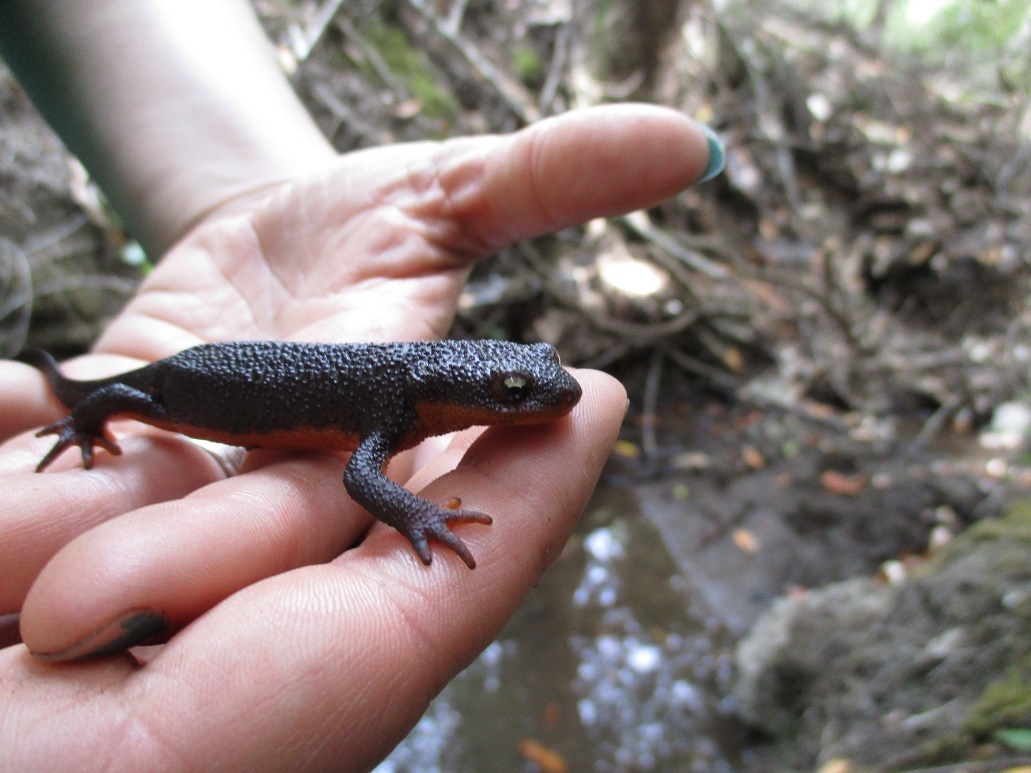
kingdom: Animalia
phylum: Chordata
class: Amphibia
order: Caudata
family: Salamandridae
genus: Taricha
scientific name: Taricha granulosa
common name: Roughskin newt
